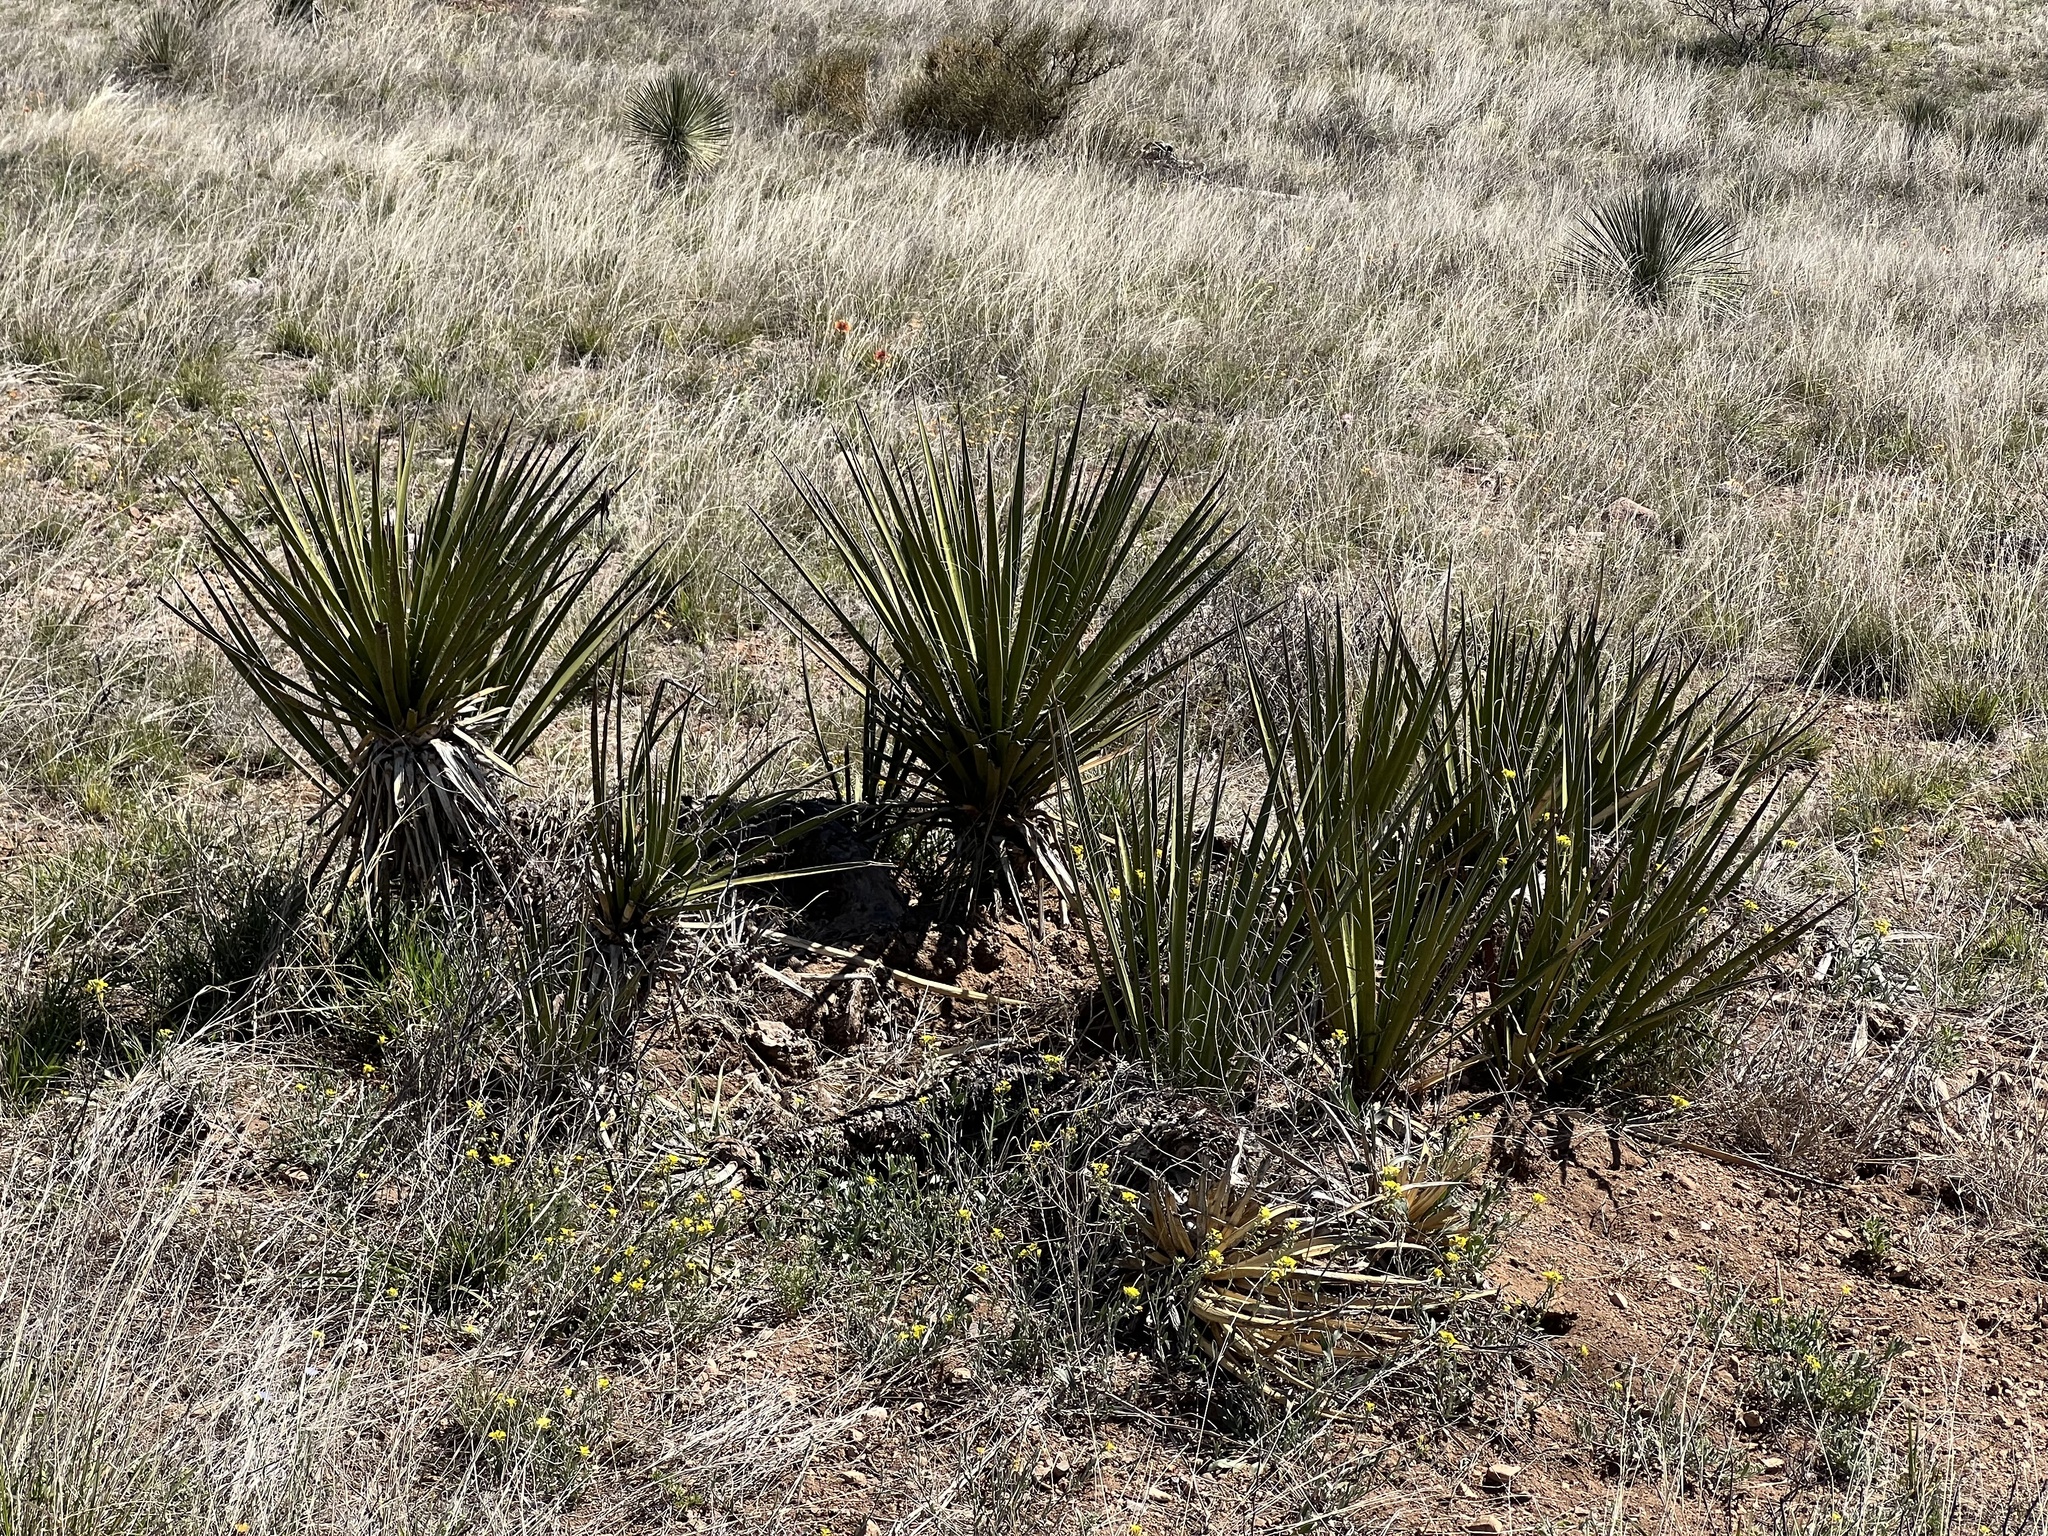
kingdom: Plantae
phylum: Tracheophyta
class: Liliopsida
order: Asparagales
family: Asparagaceae
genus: Yucca
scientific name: Yucca baccata
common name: Banana yucca
